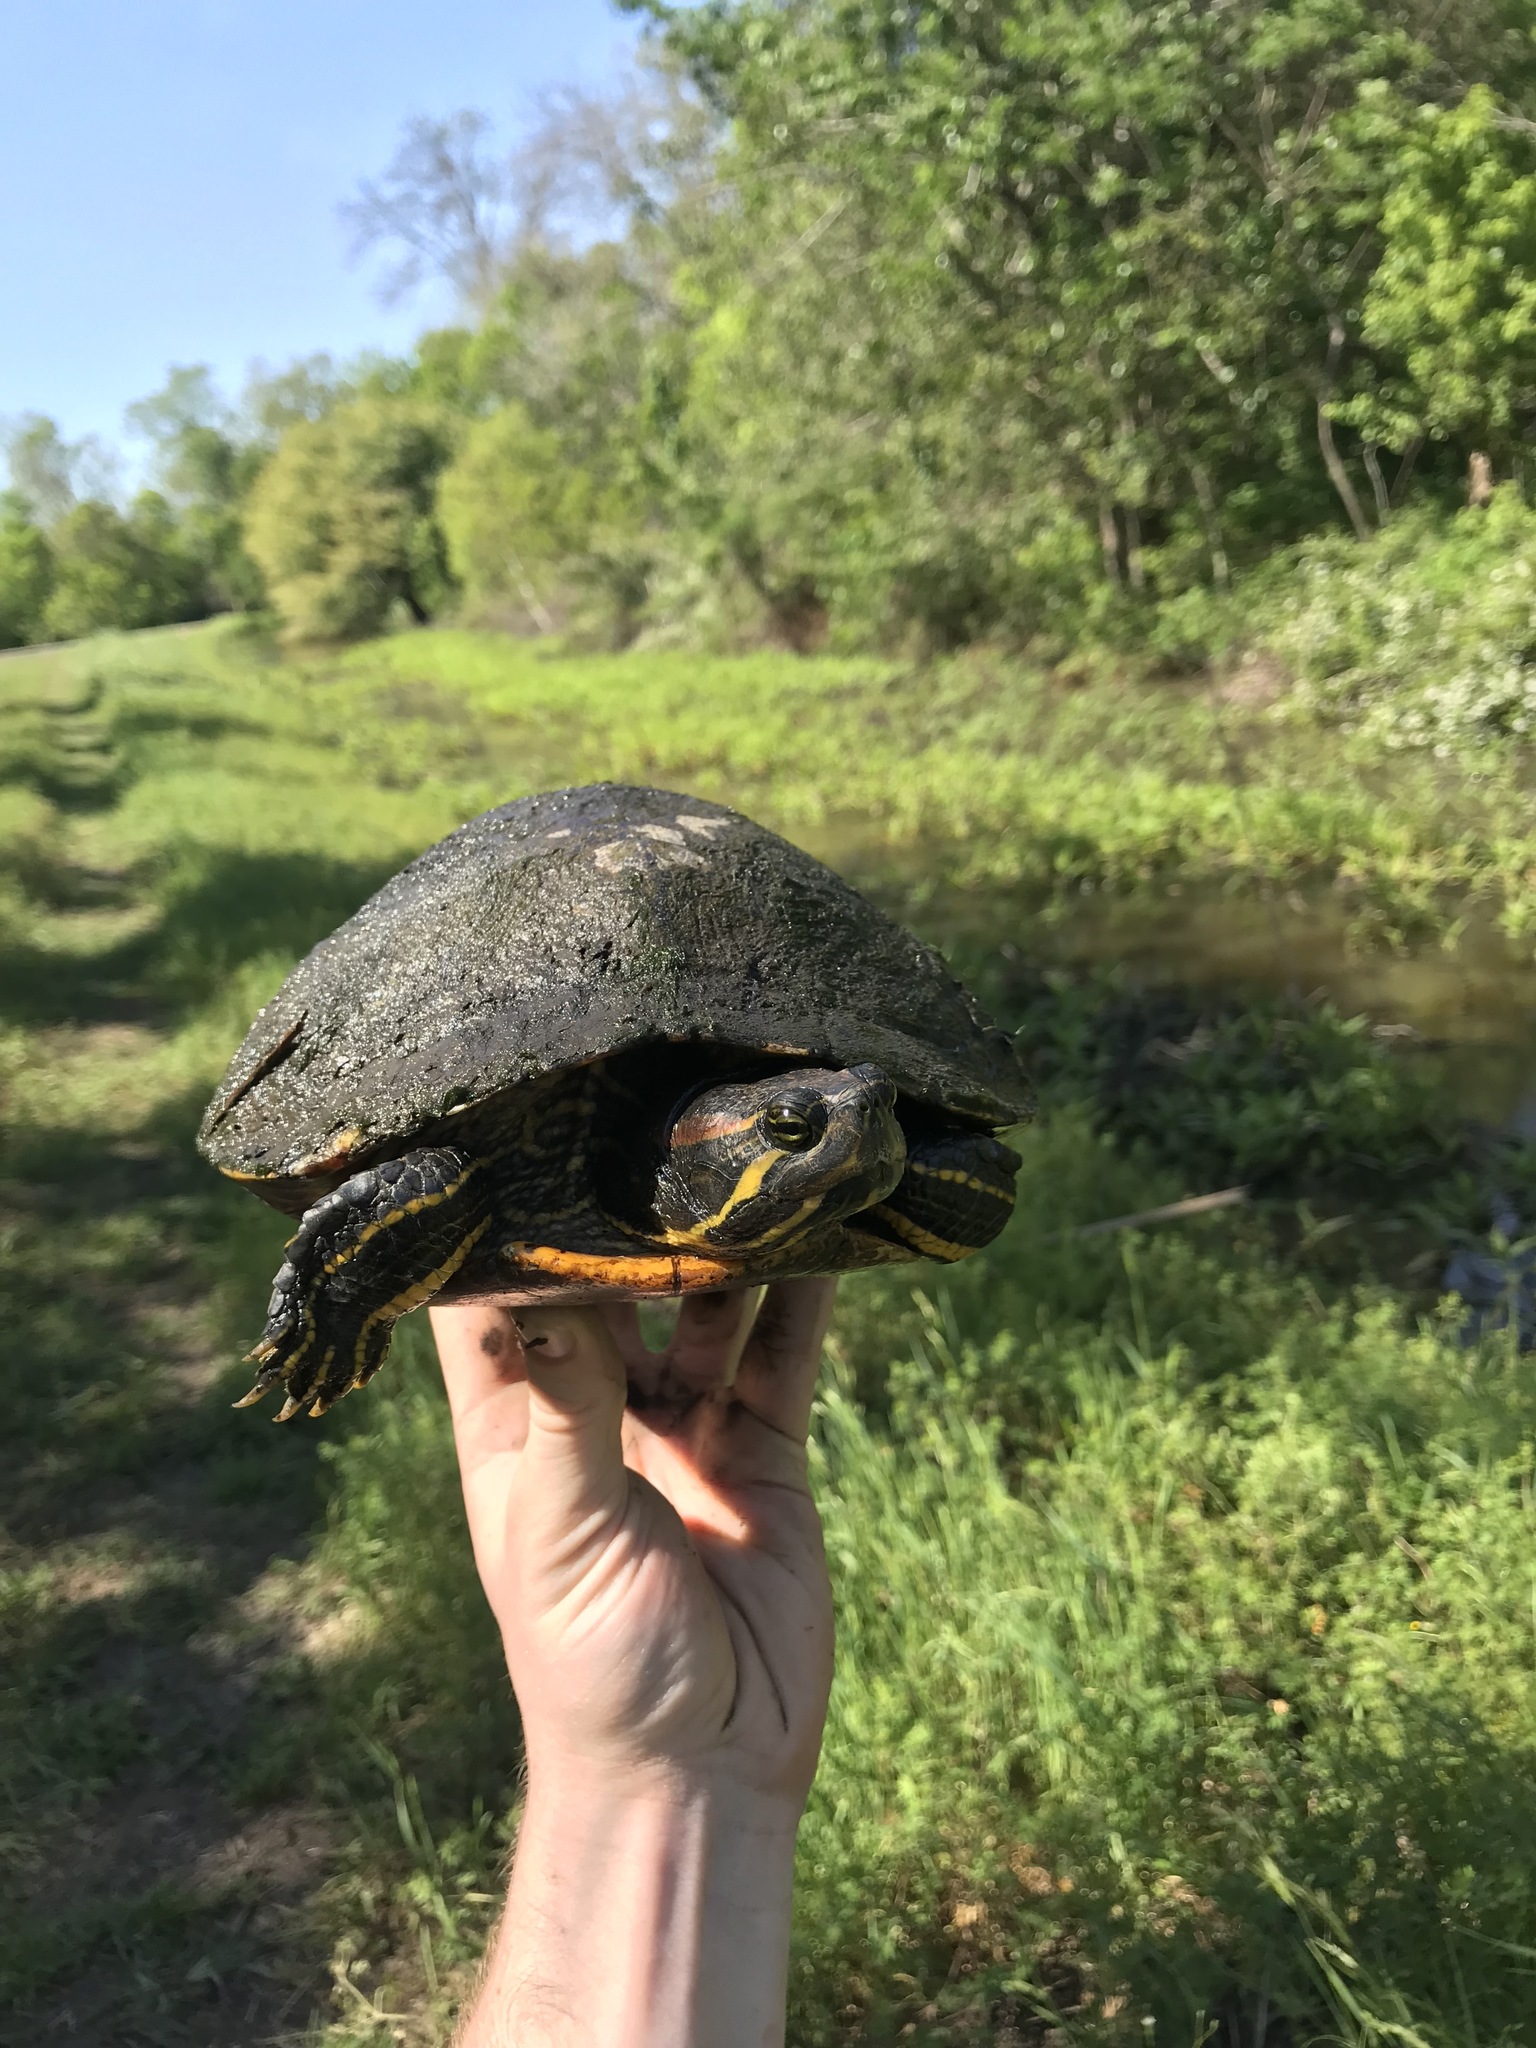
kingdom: Animalia
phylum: Chordata
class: Testudines
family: Emydidae
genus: Trachemys
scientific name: Trachemys scripta
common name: Slider
